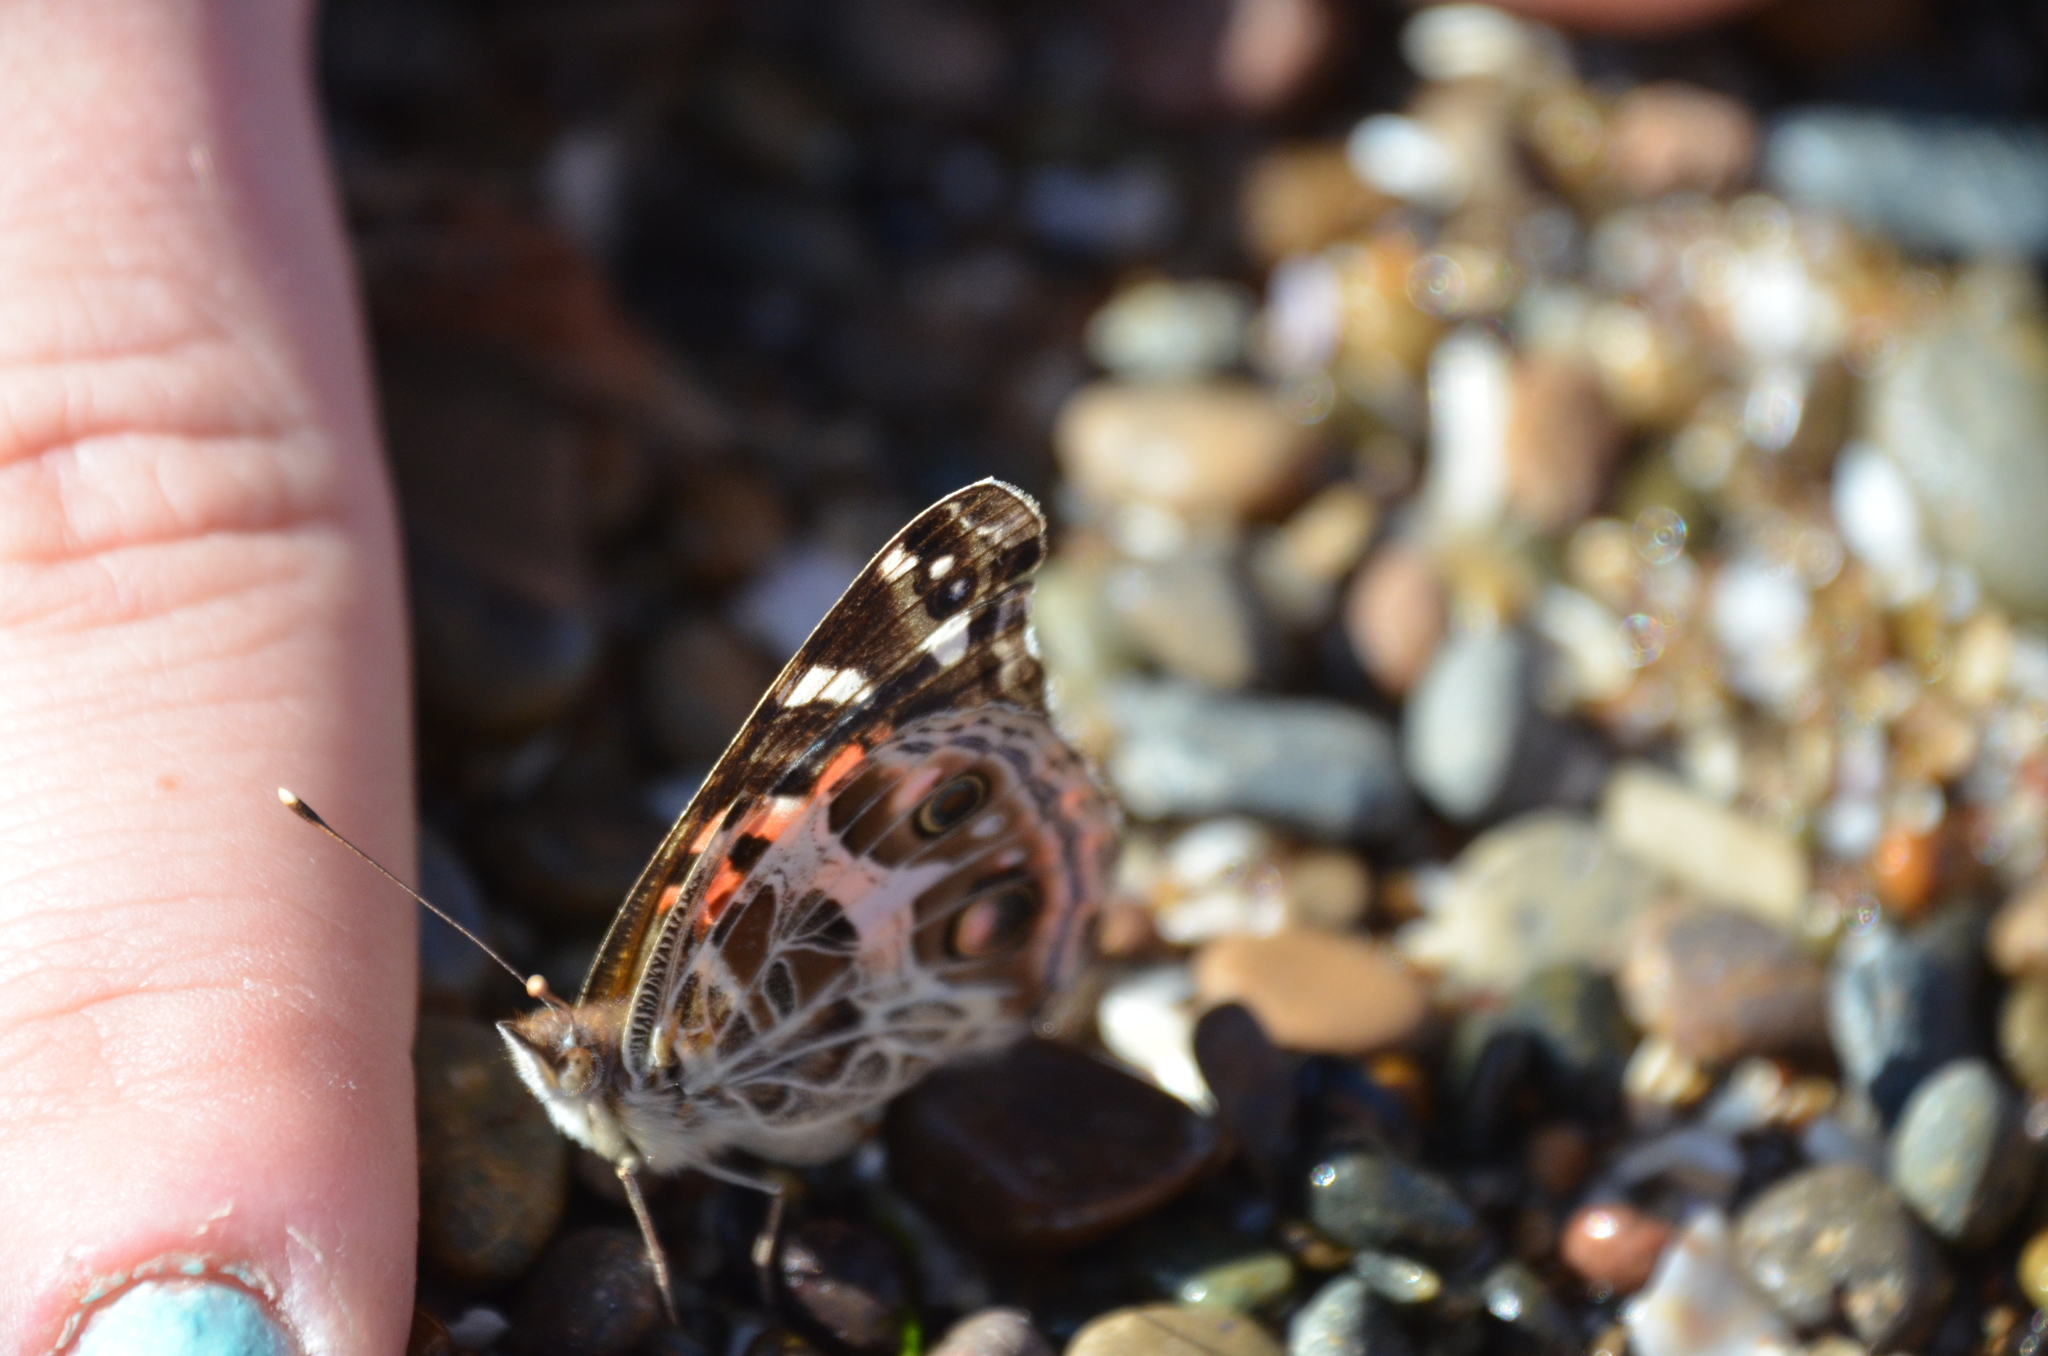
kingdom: Animalia
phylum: Arthropoda
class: Insecta
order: Lepidoptera
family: Nymphalidae
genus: Vanessa
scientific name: Vanessa braziliensis
